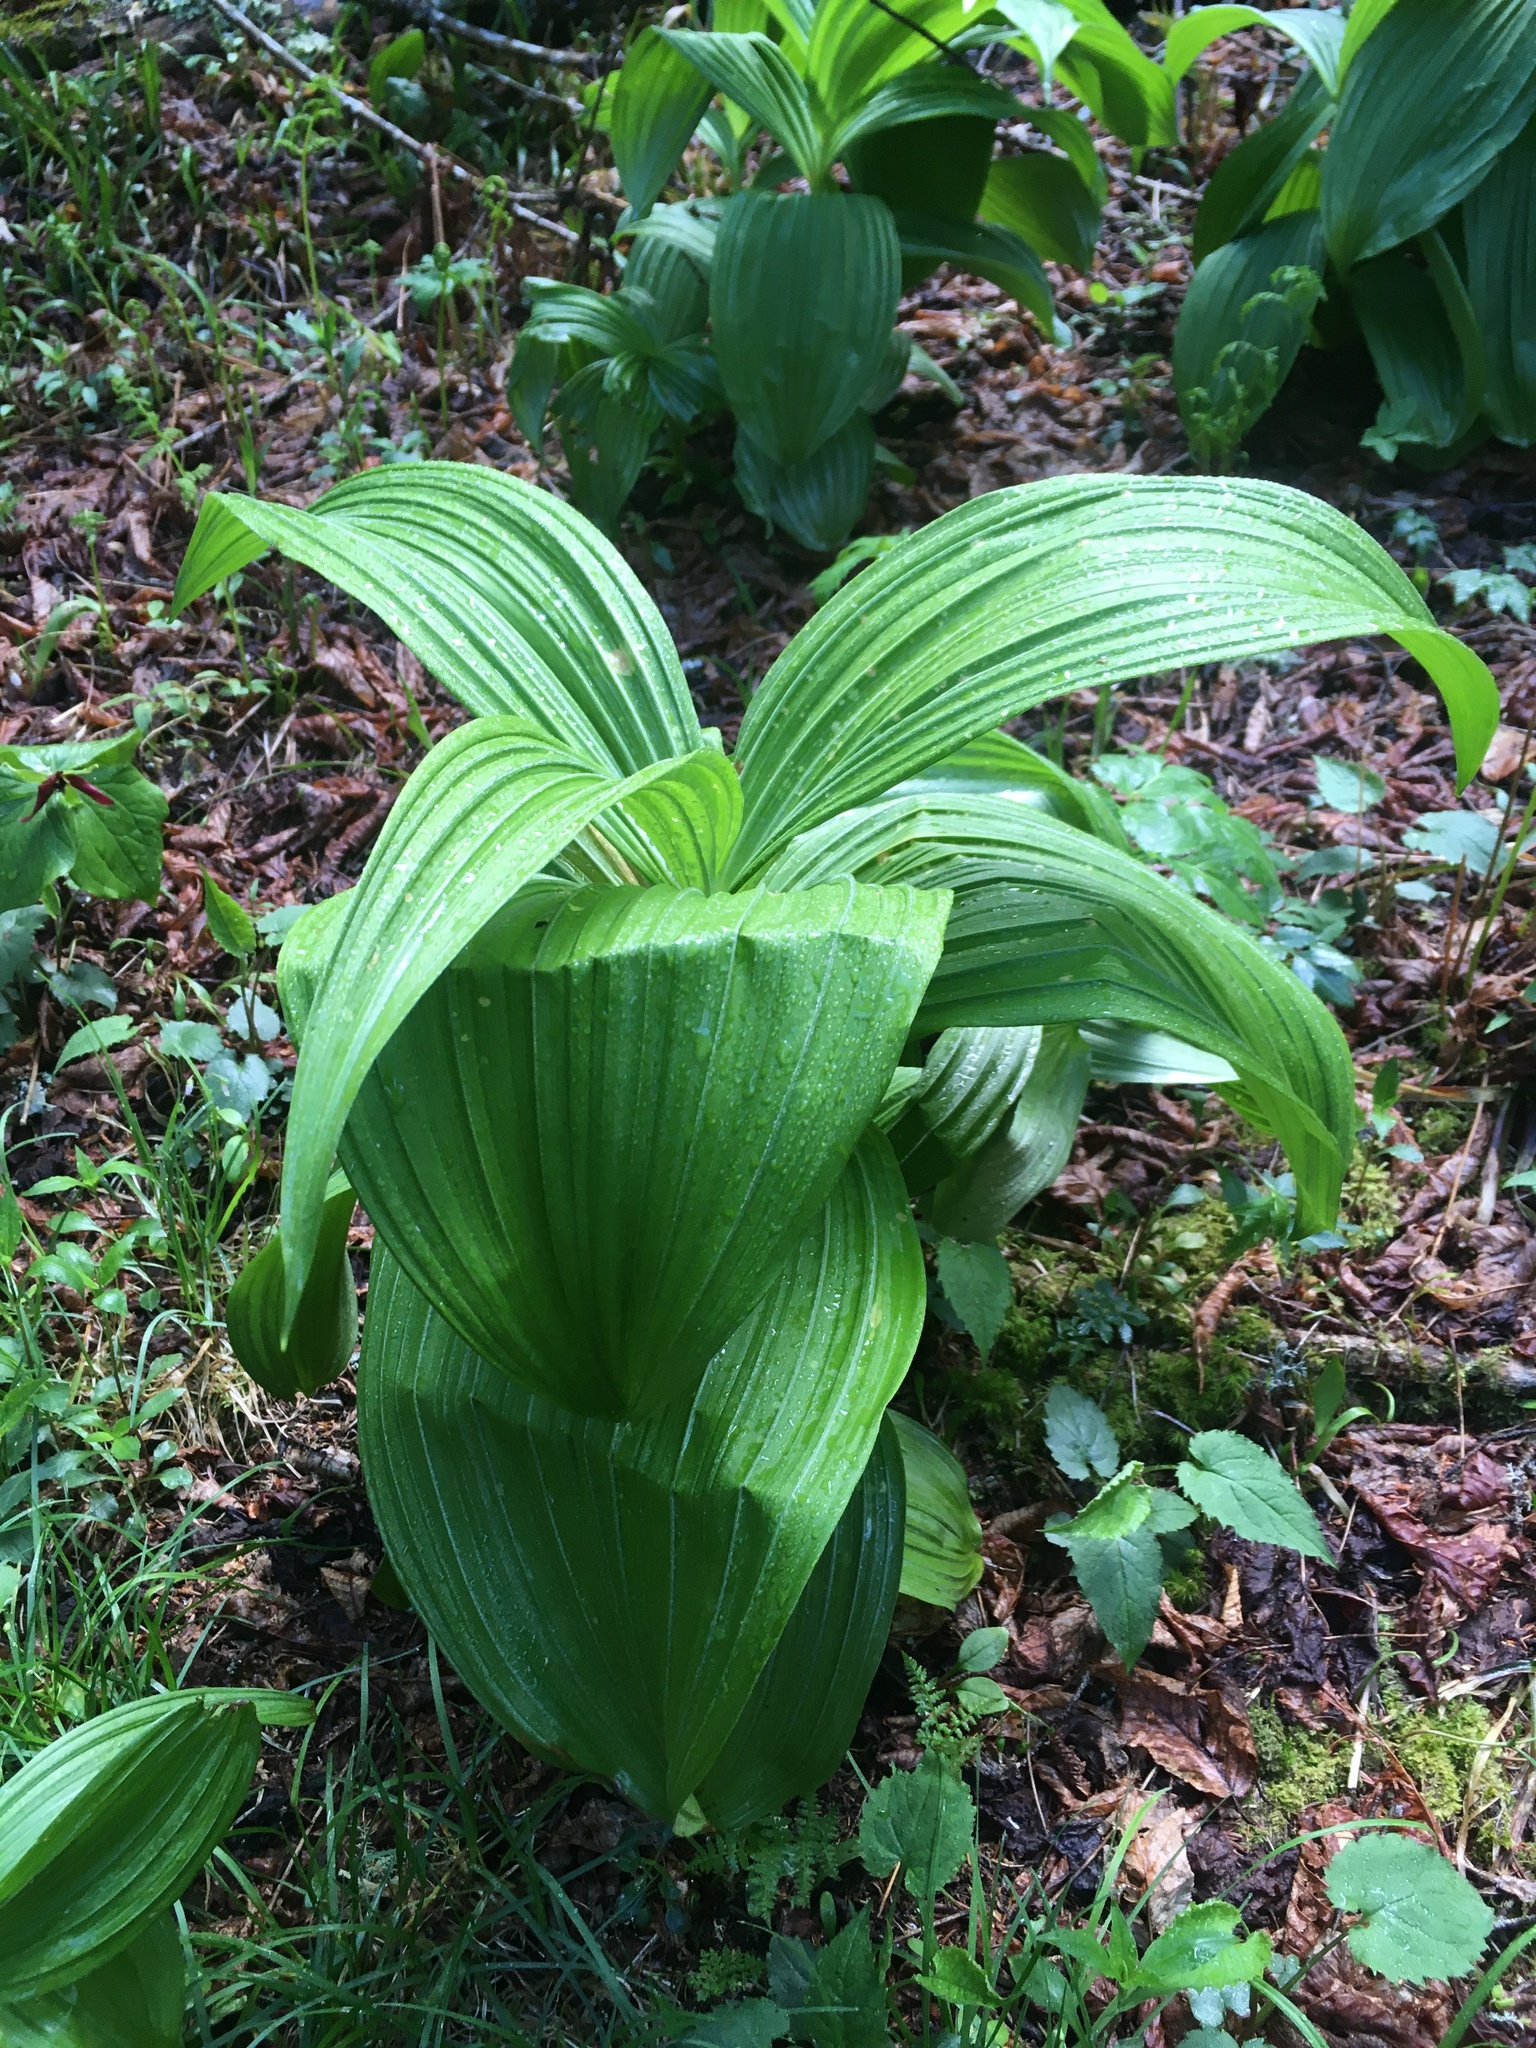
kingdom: Plantae
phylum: Tracheophyta
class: Liliopsida
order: Liliales
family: Melanthiaceae
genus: Veratrum
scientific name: Veratrum viride
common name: American false hellebore
